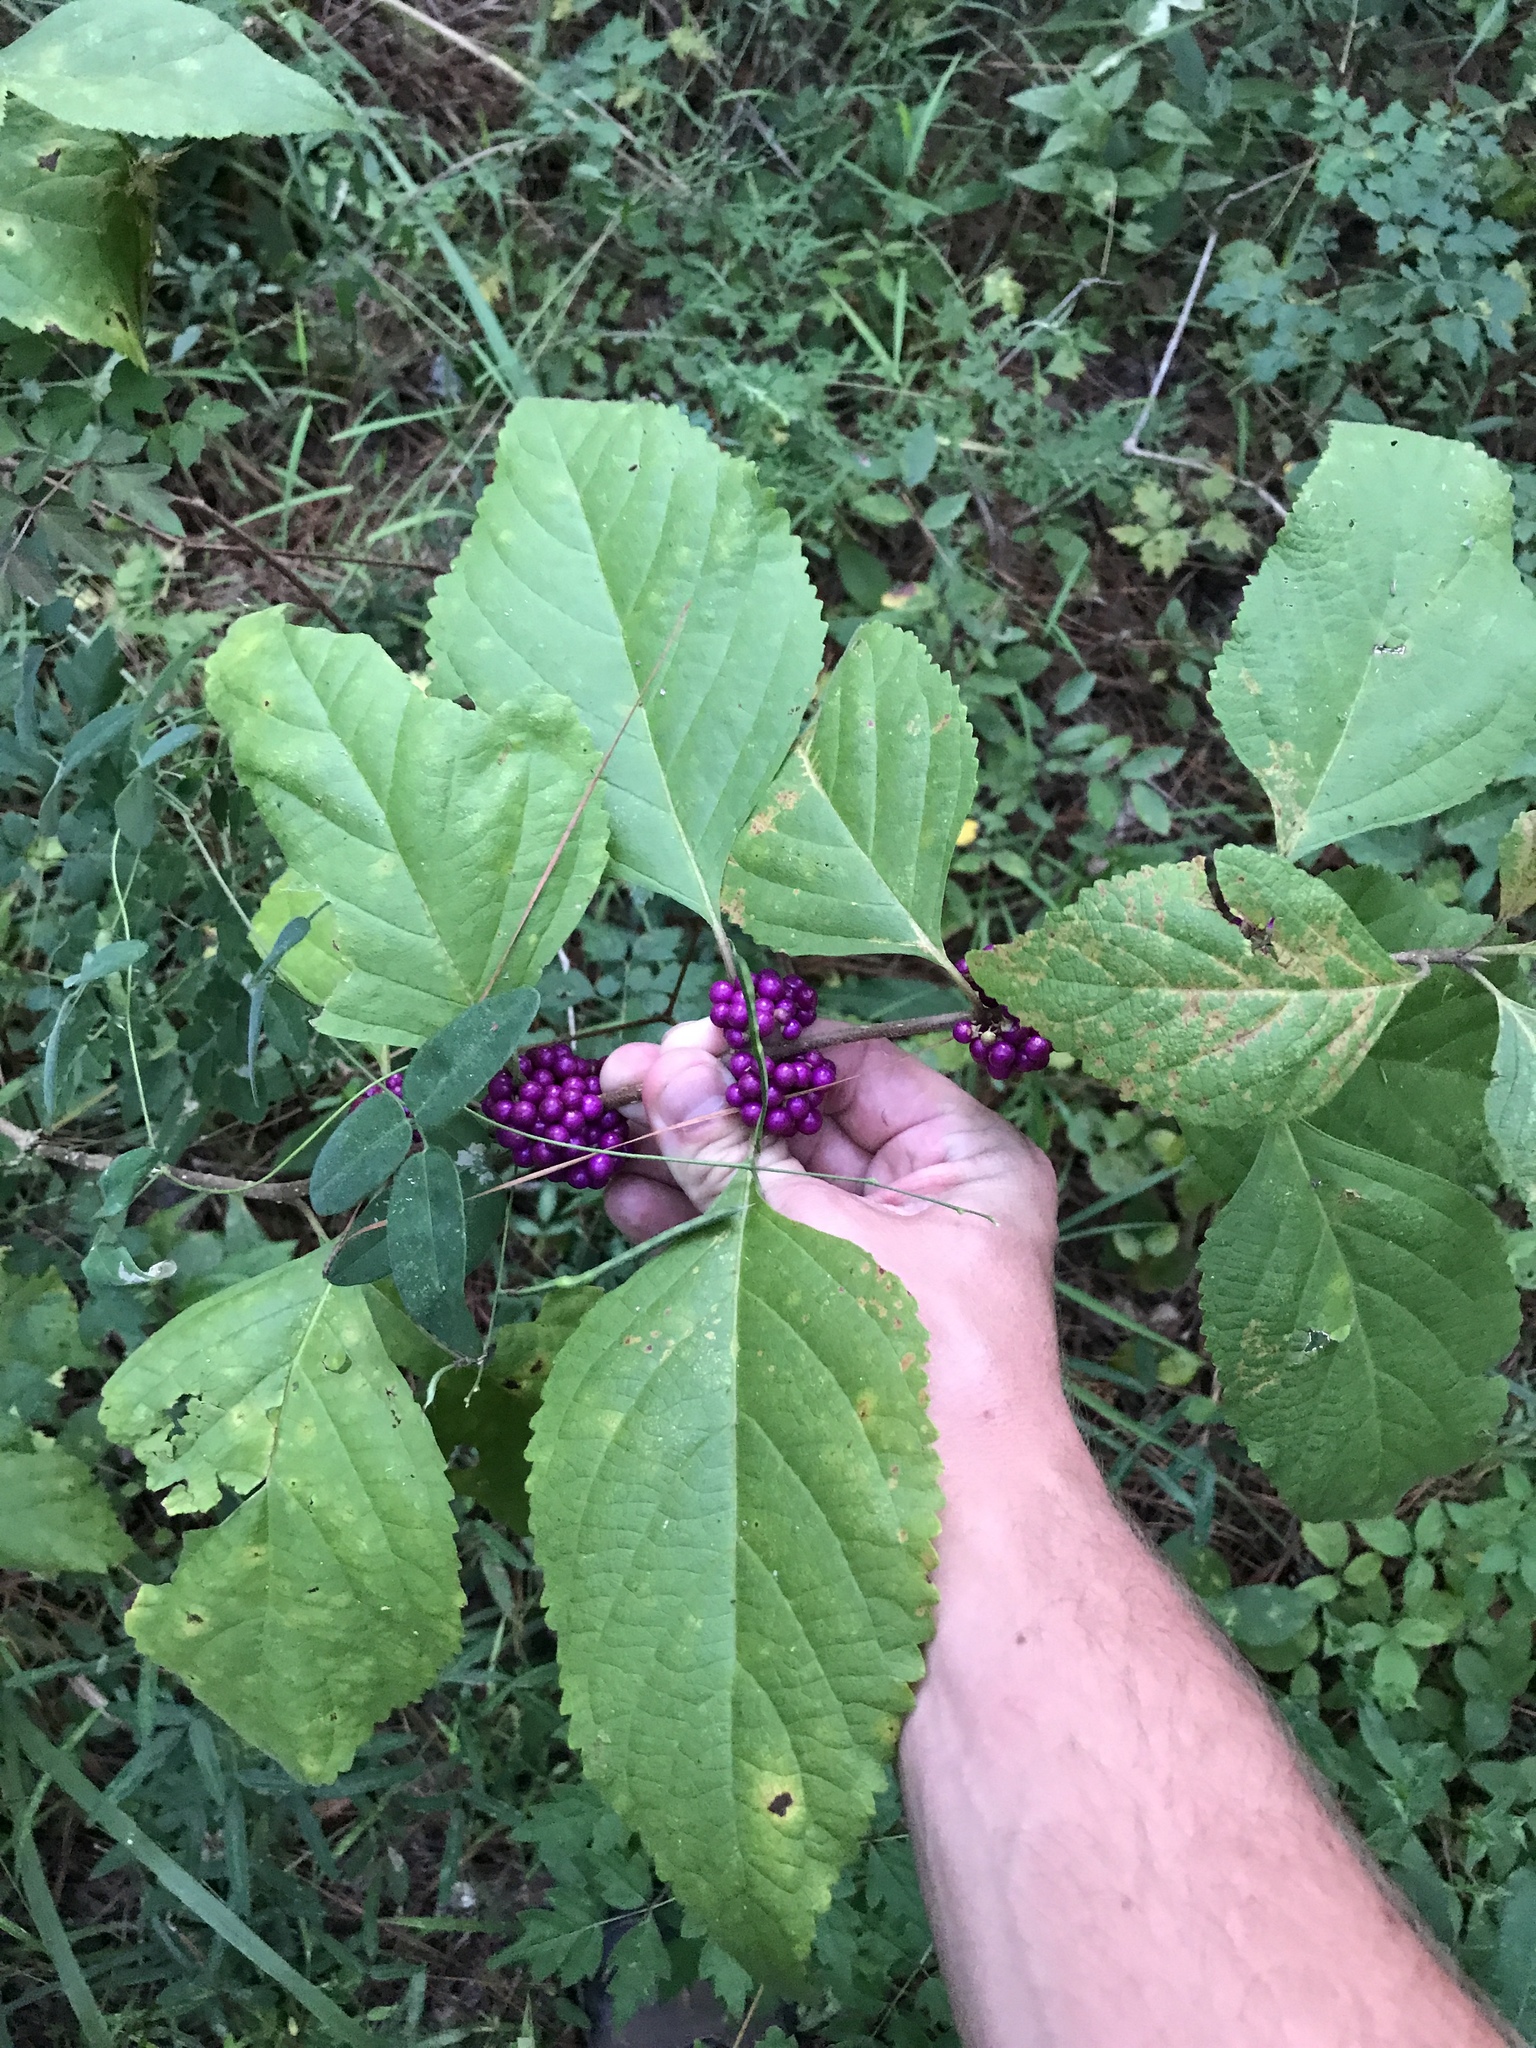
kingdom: Plantae
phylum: Tracheophyta
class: Magnoliopsida
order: Lamiales
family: Lamiaceae
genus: Callicarpa
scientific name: Callicarpa americana
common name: American beautyberry
